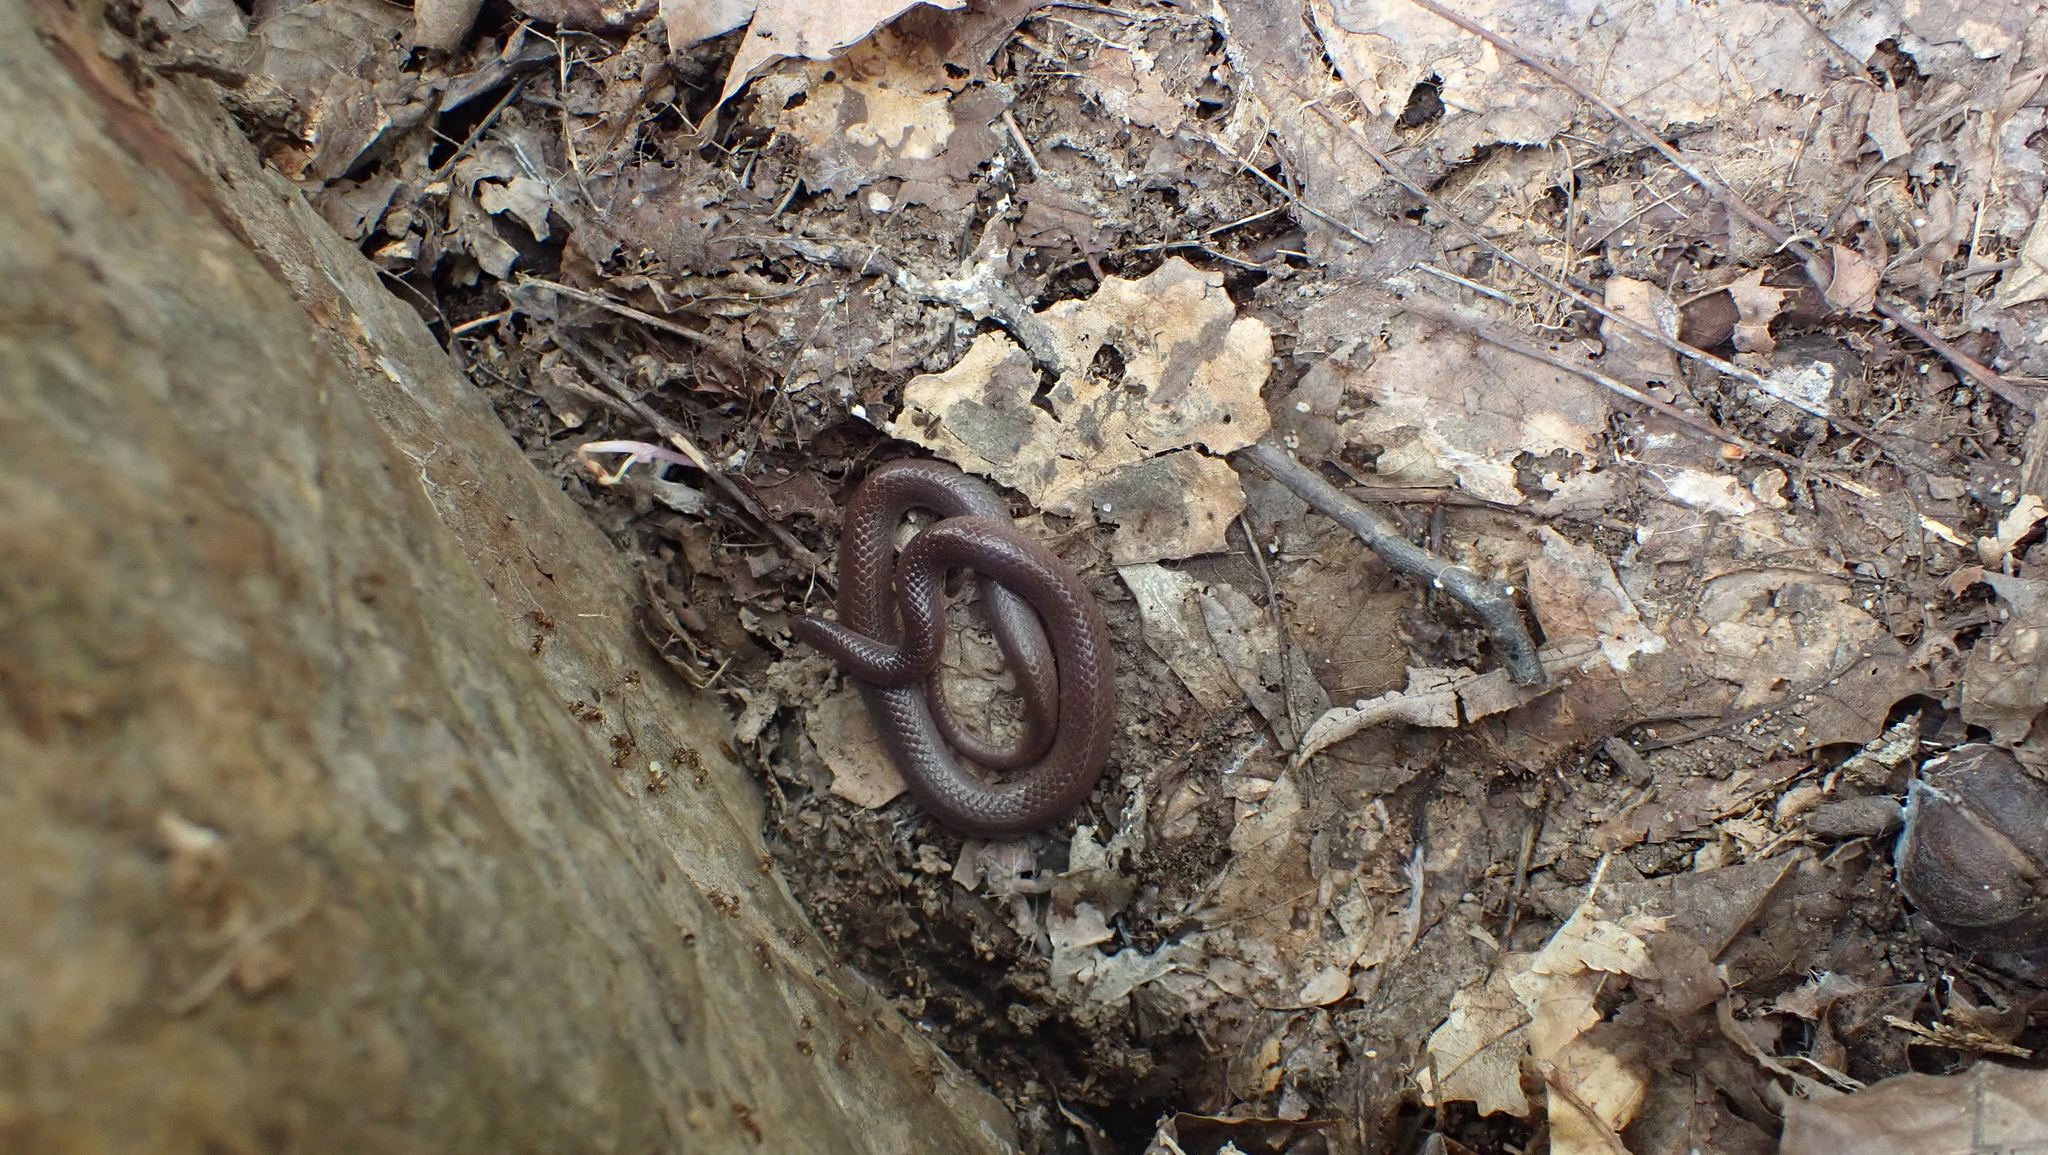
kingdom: Animalia
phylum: Chordata
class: Squamata
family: Colubridae
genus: Carphophis
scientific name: Carphophis amoenus
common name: Eastern worm snake
